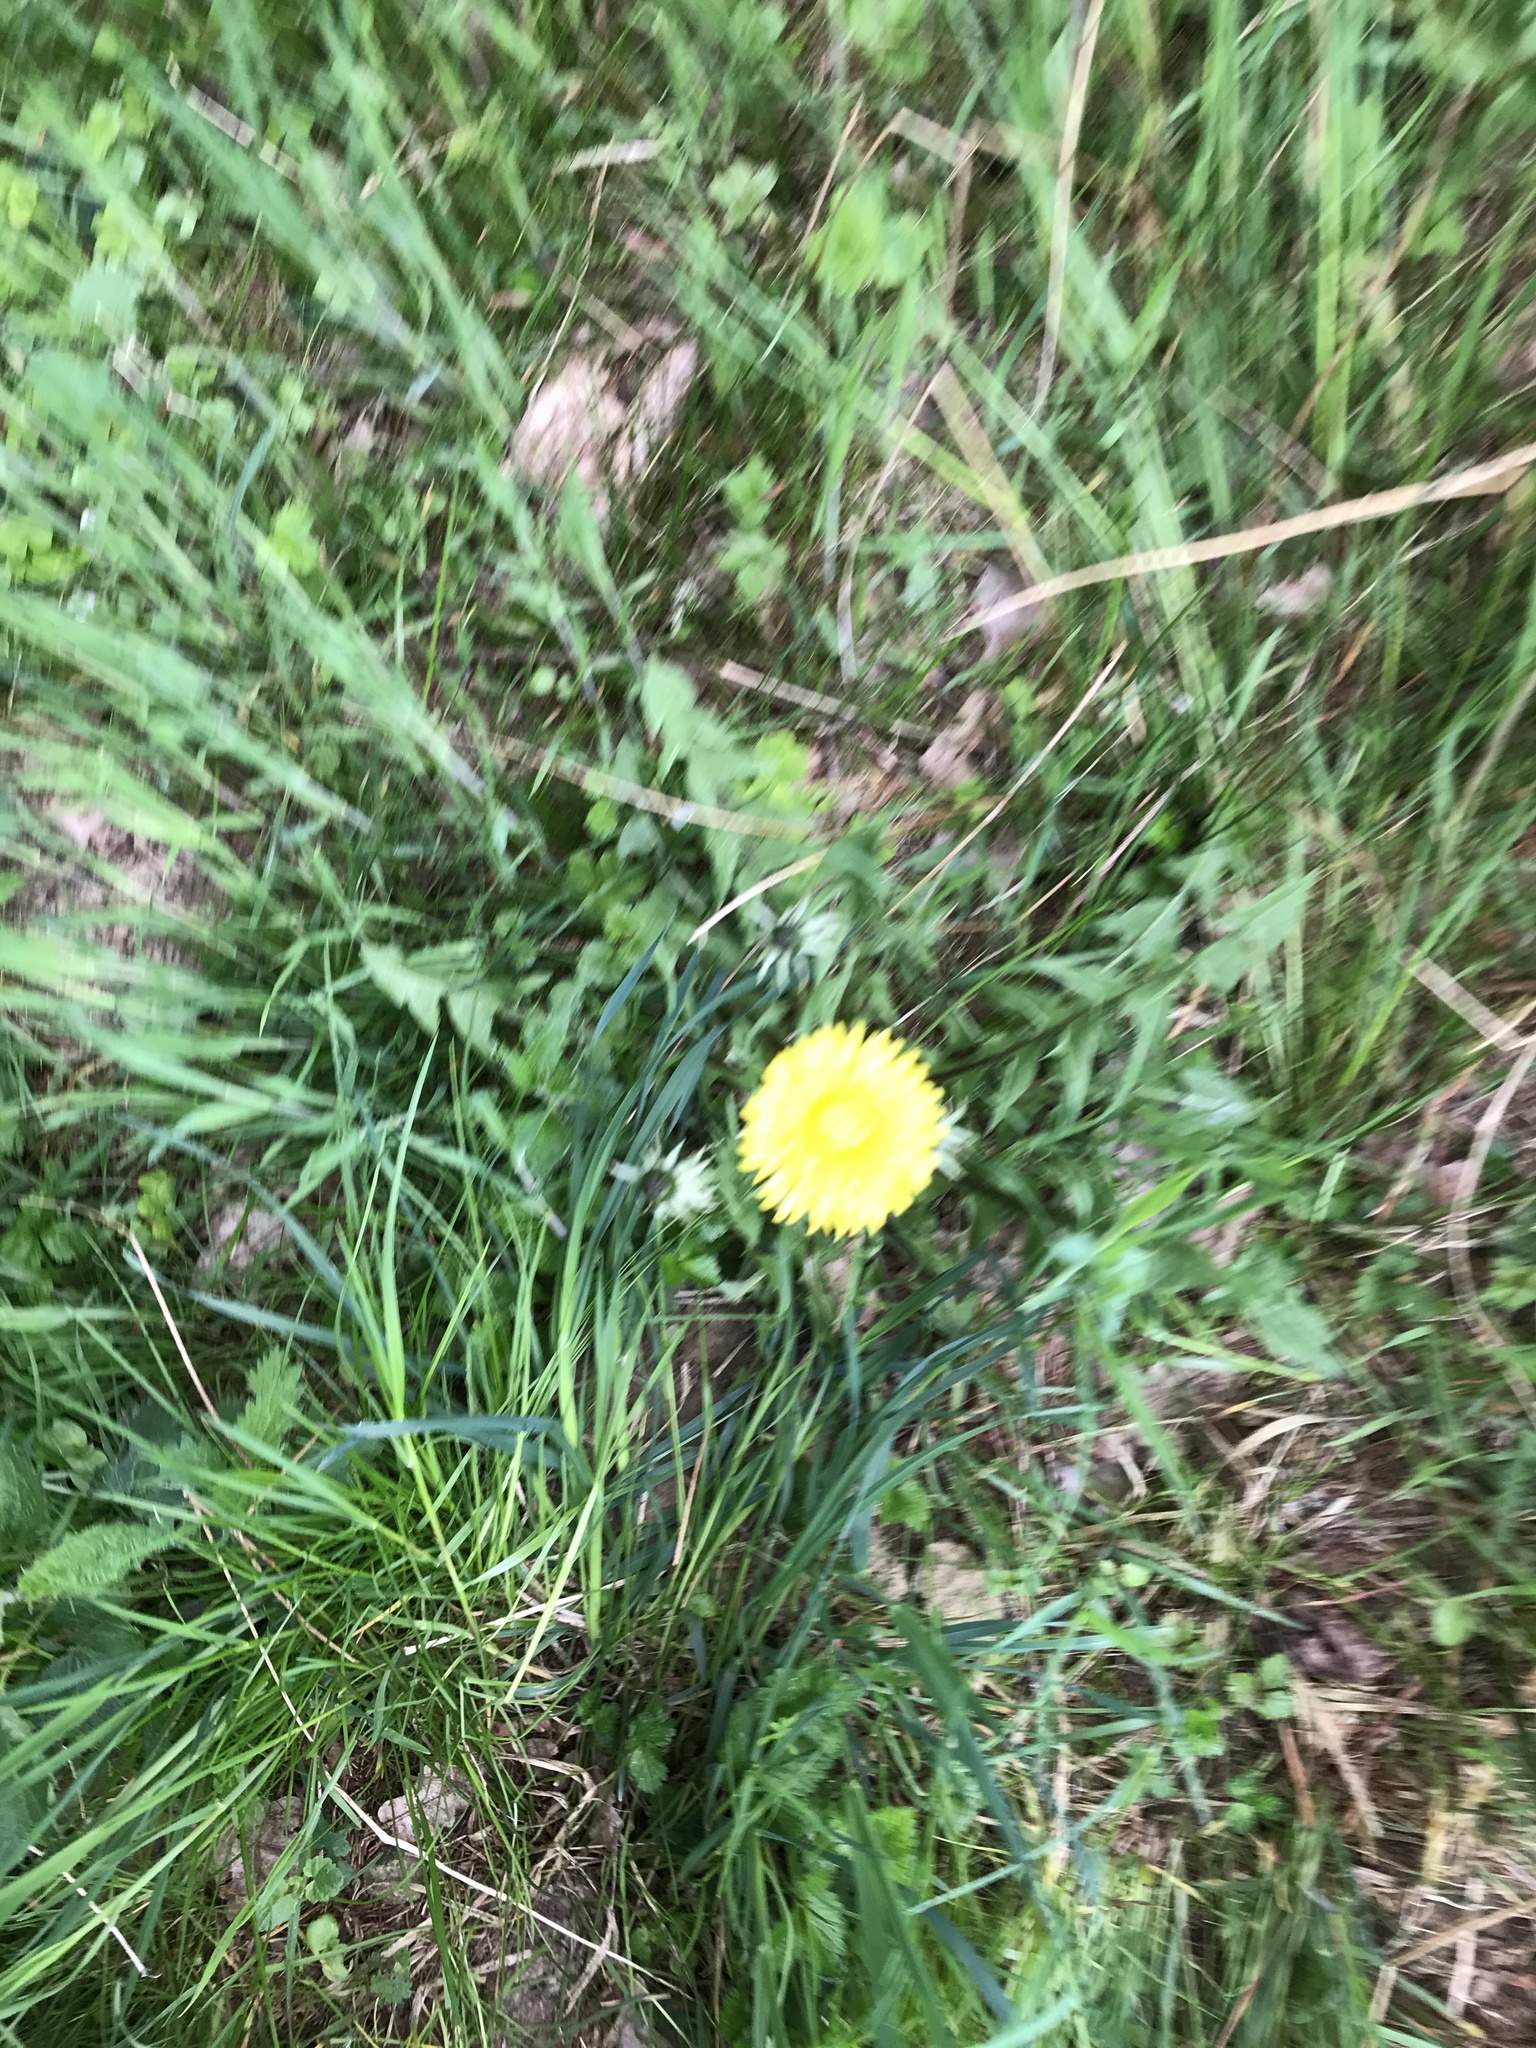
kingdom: Plantae
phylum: Tracheophyta
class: Magnoliopsida
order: Asterales
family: Asteraceae
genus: Taraxacum
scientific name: Taraxacum officinale
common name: Common dandelion
